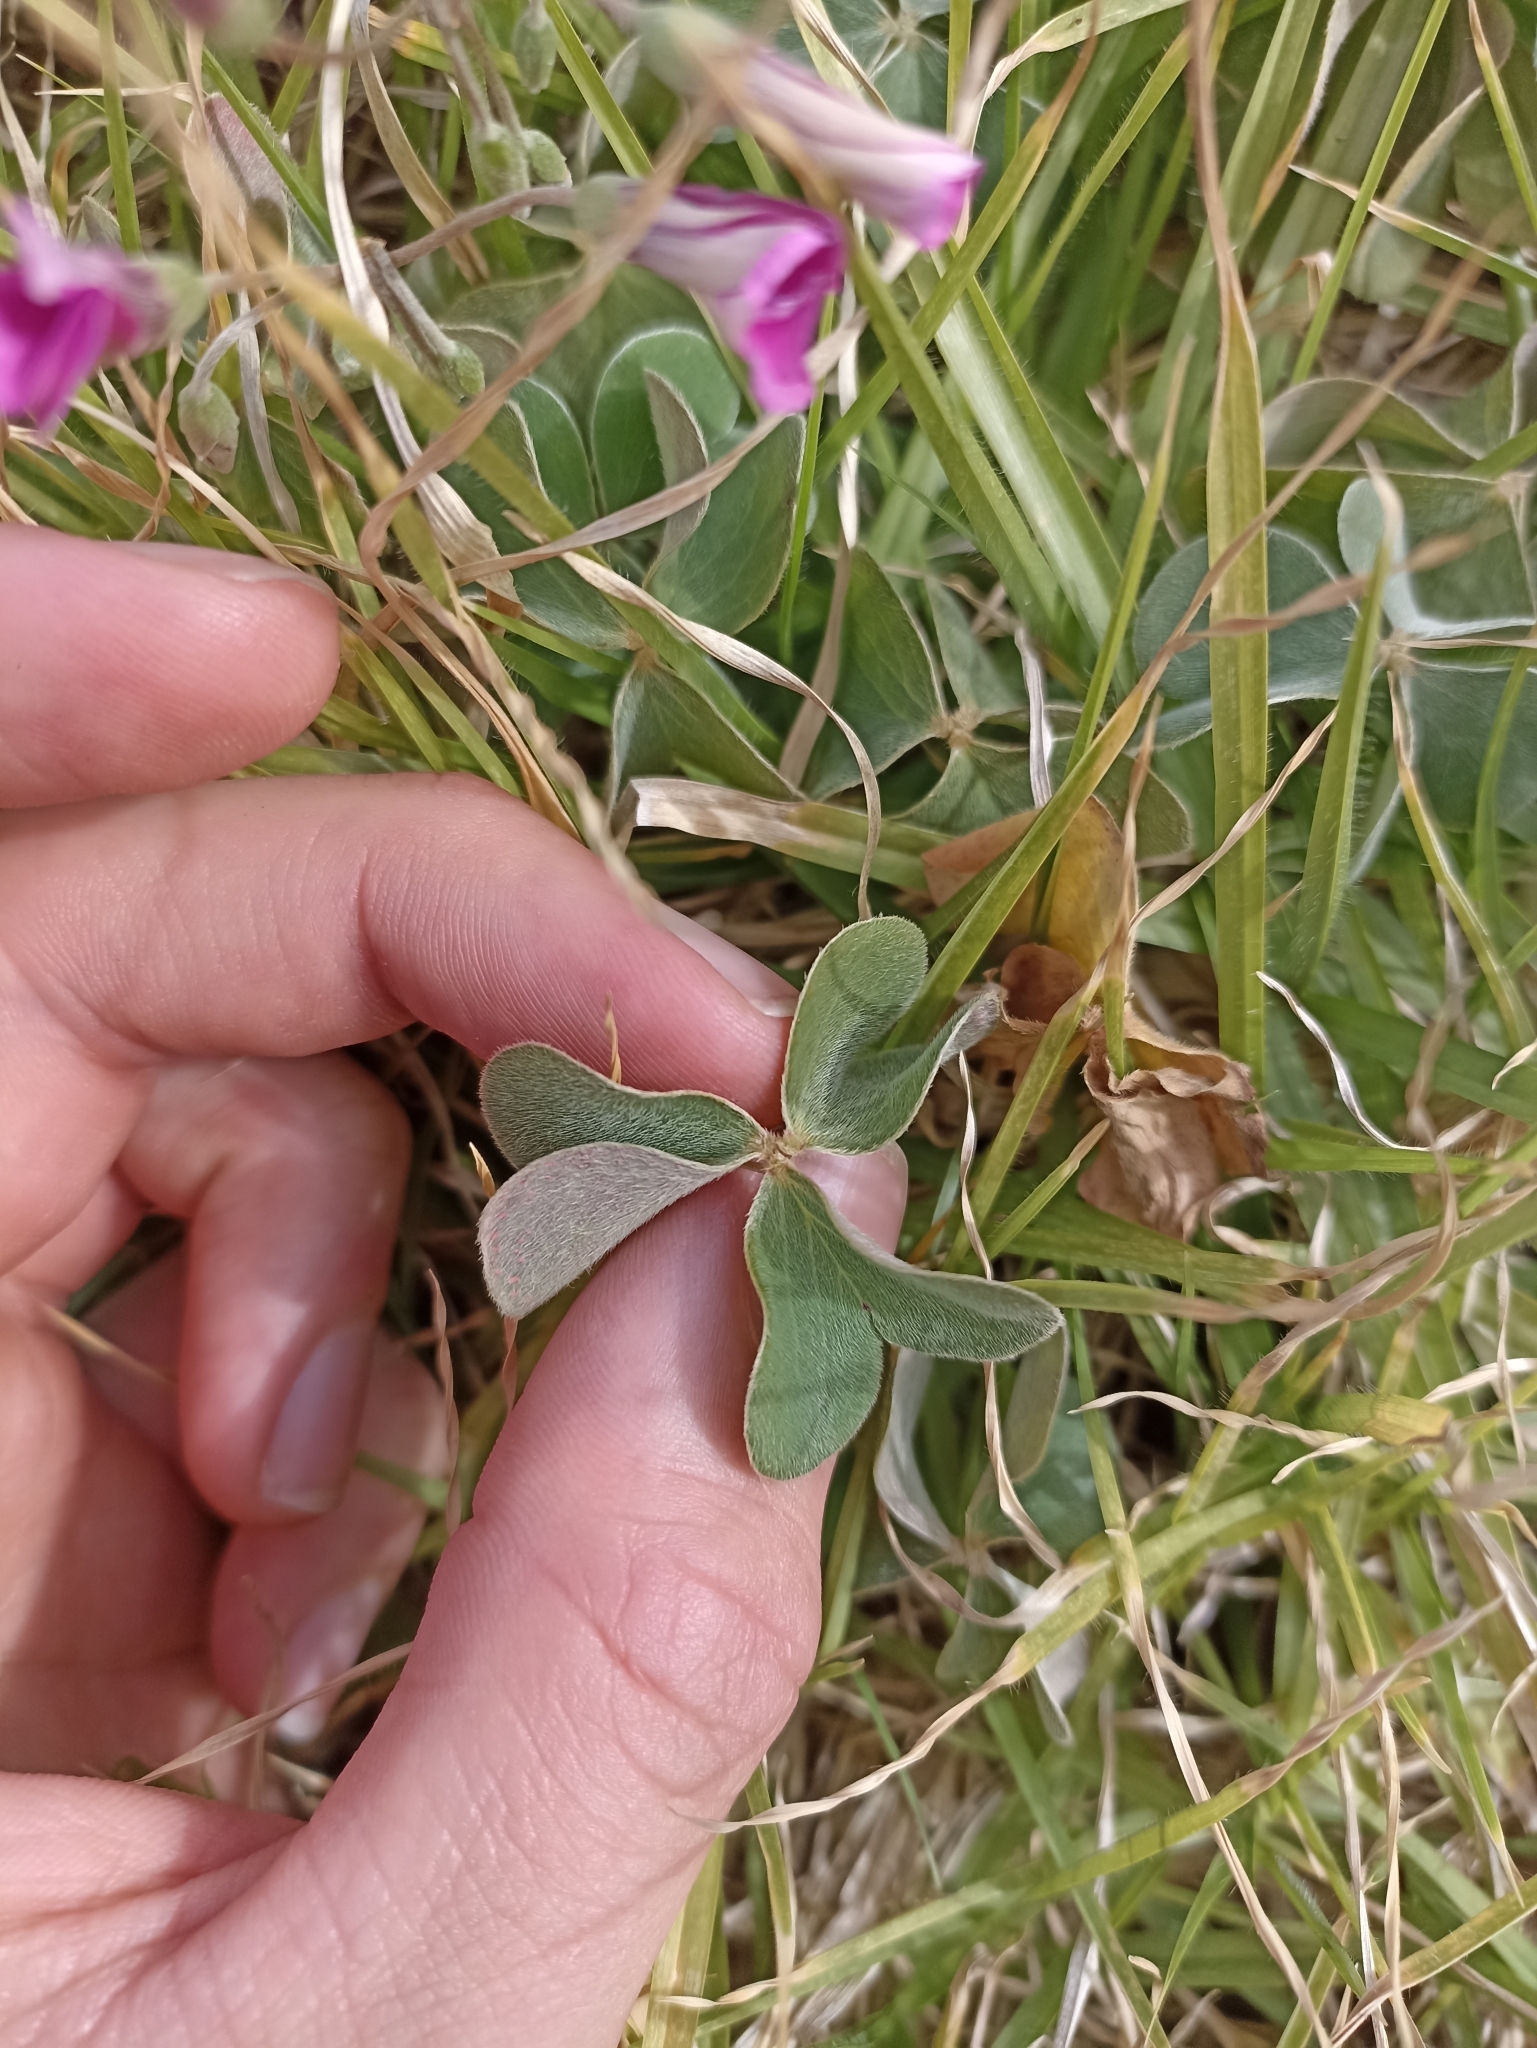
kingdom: Plantae
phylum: Tracheophyta
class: Magnoliopsida
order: Oxalidales
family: Oxalidaceae
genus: Oxalis
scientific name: Oxalis articulata
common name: Pink-sorrel
